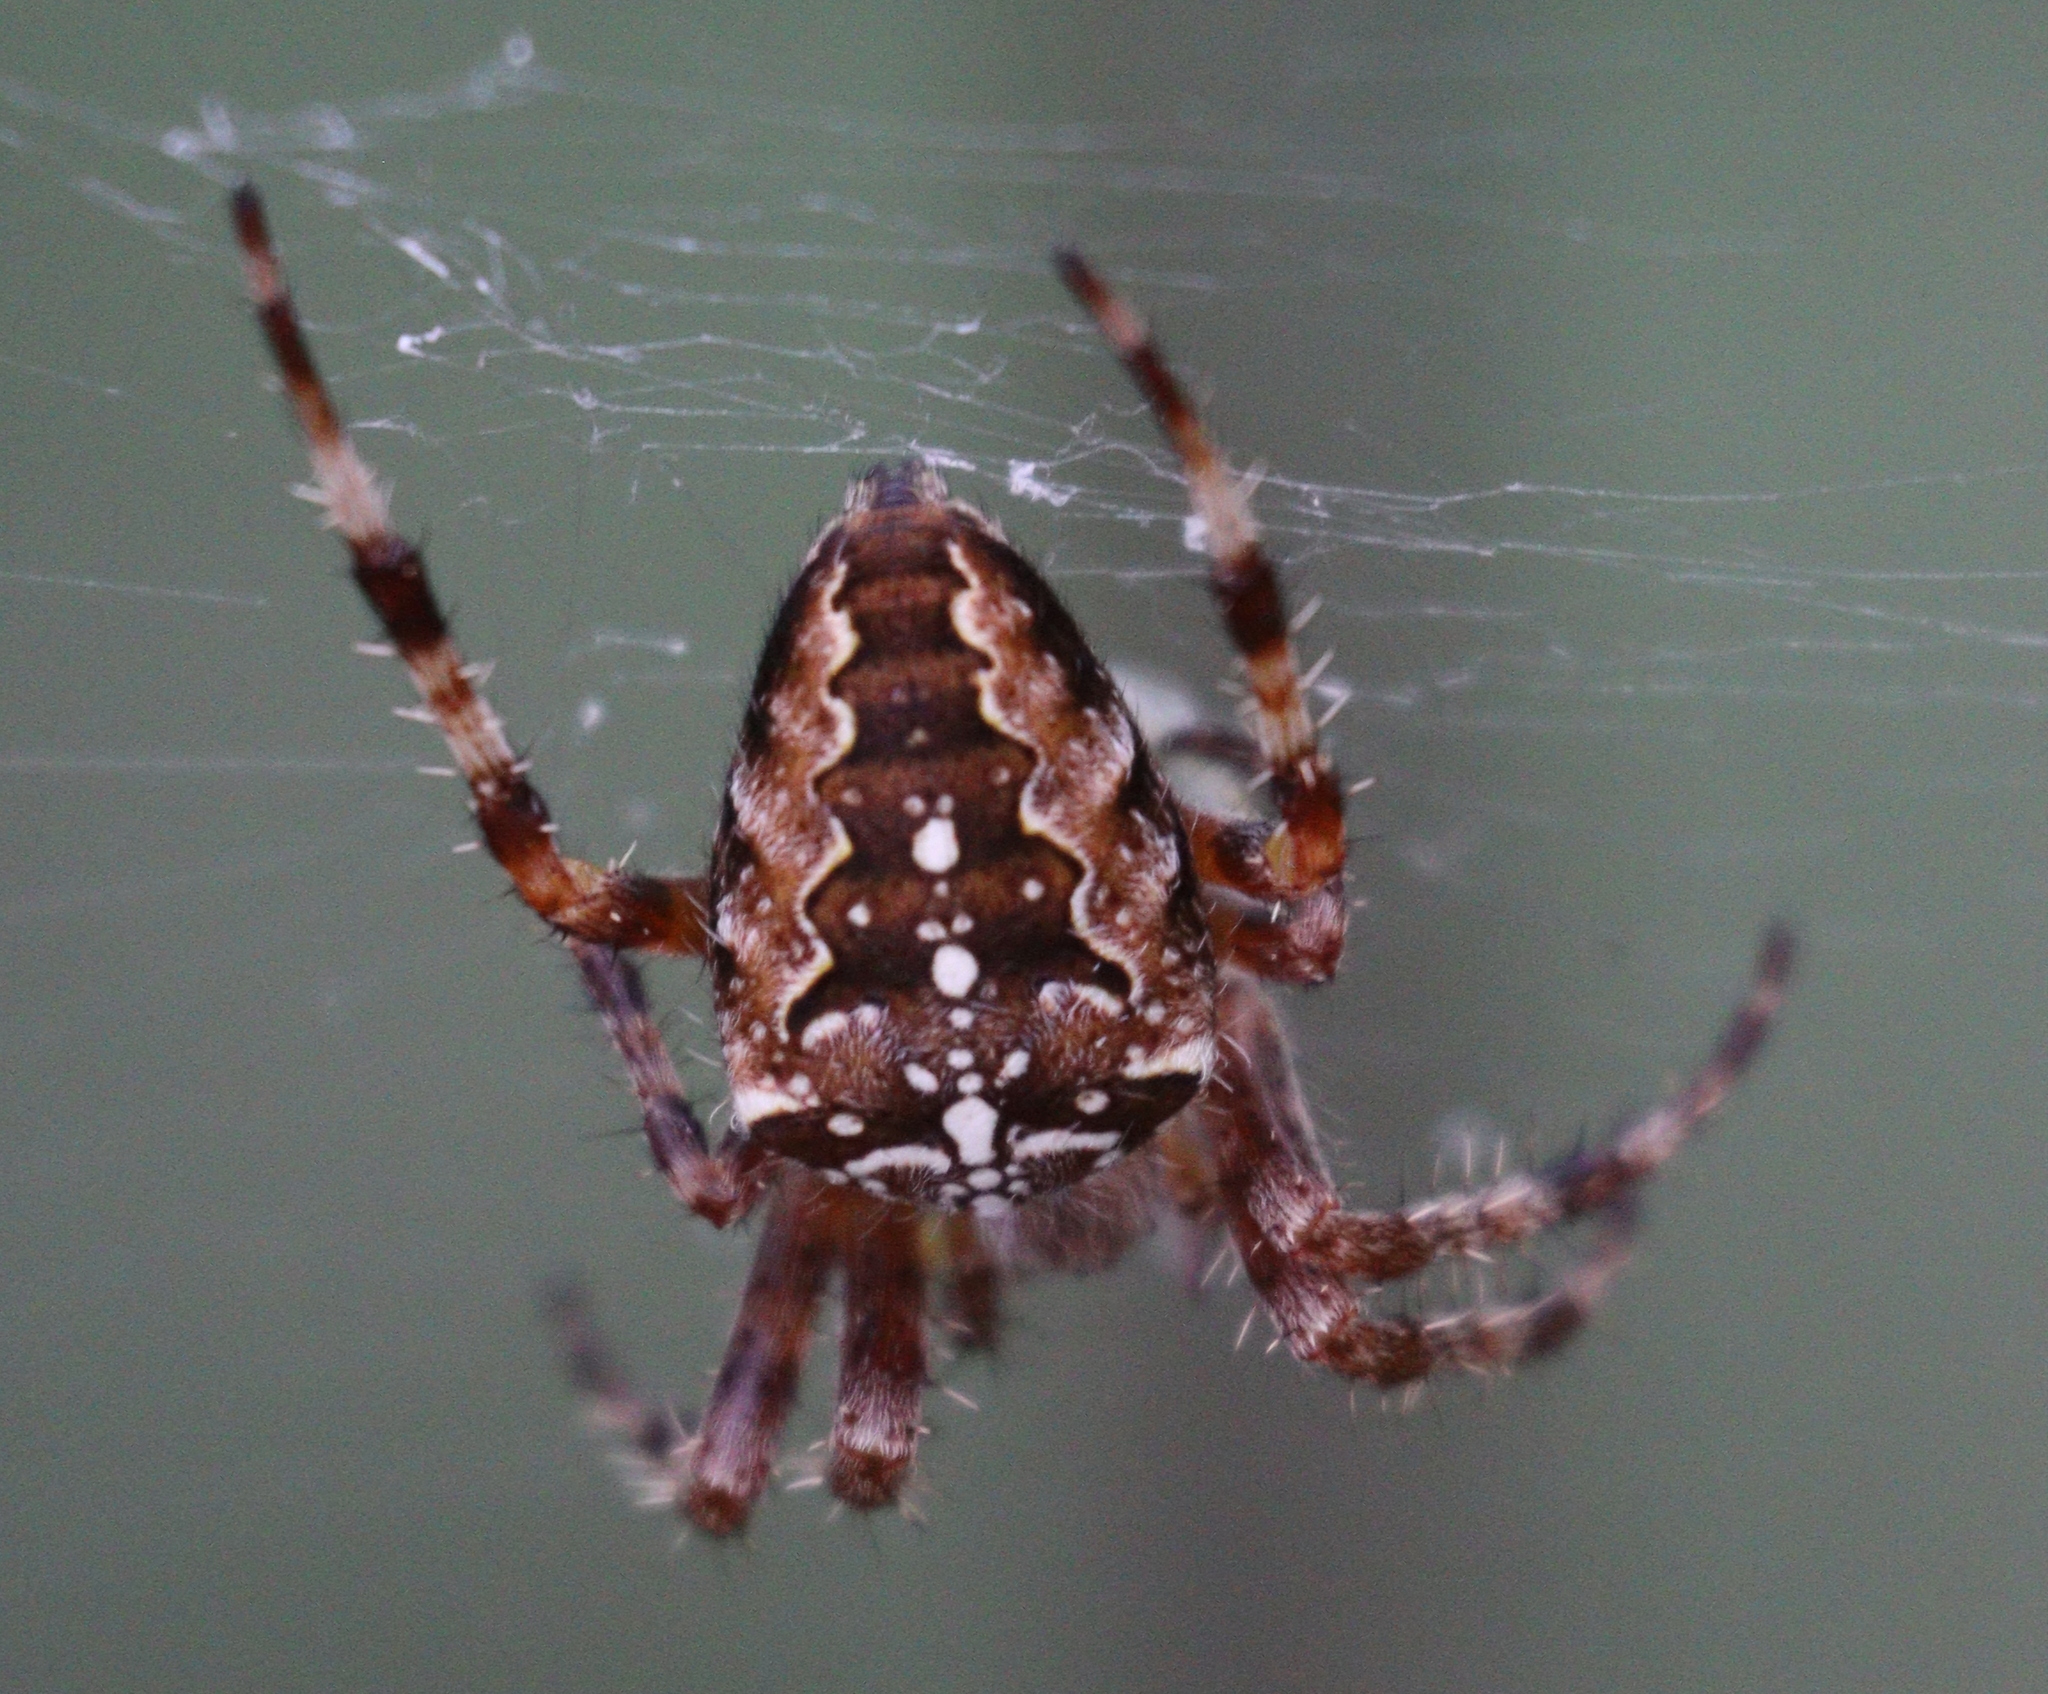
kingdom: Animalia
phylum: Arthropoda
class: Arachnida
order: Araneae
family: Araneidae
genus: Araneus
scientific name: Araneus diadematus
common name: Cross orbweaver
